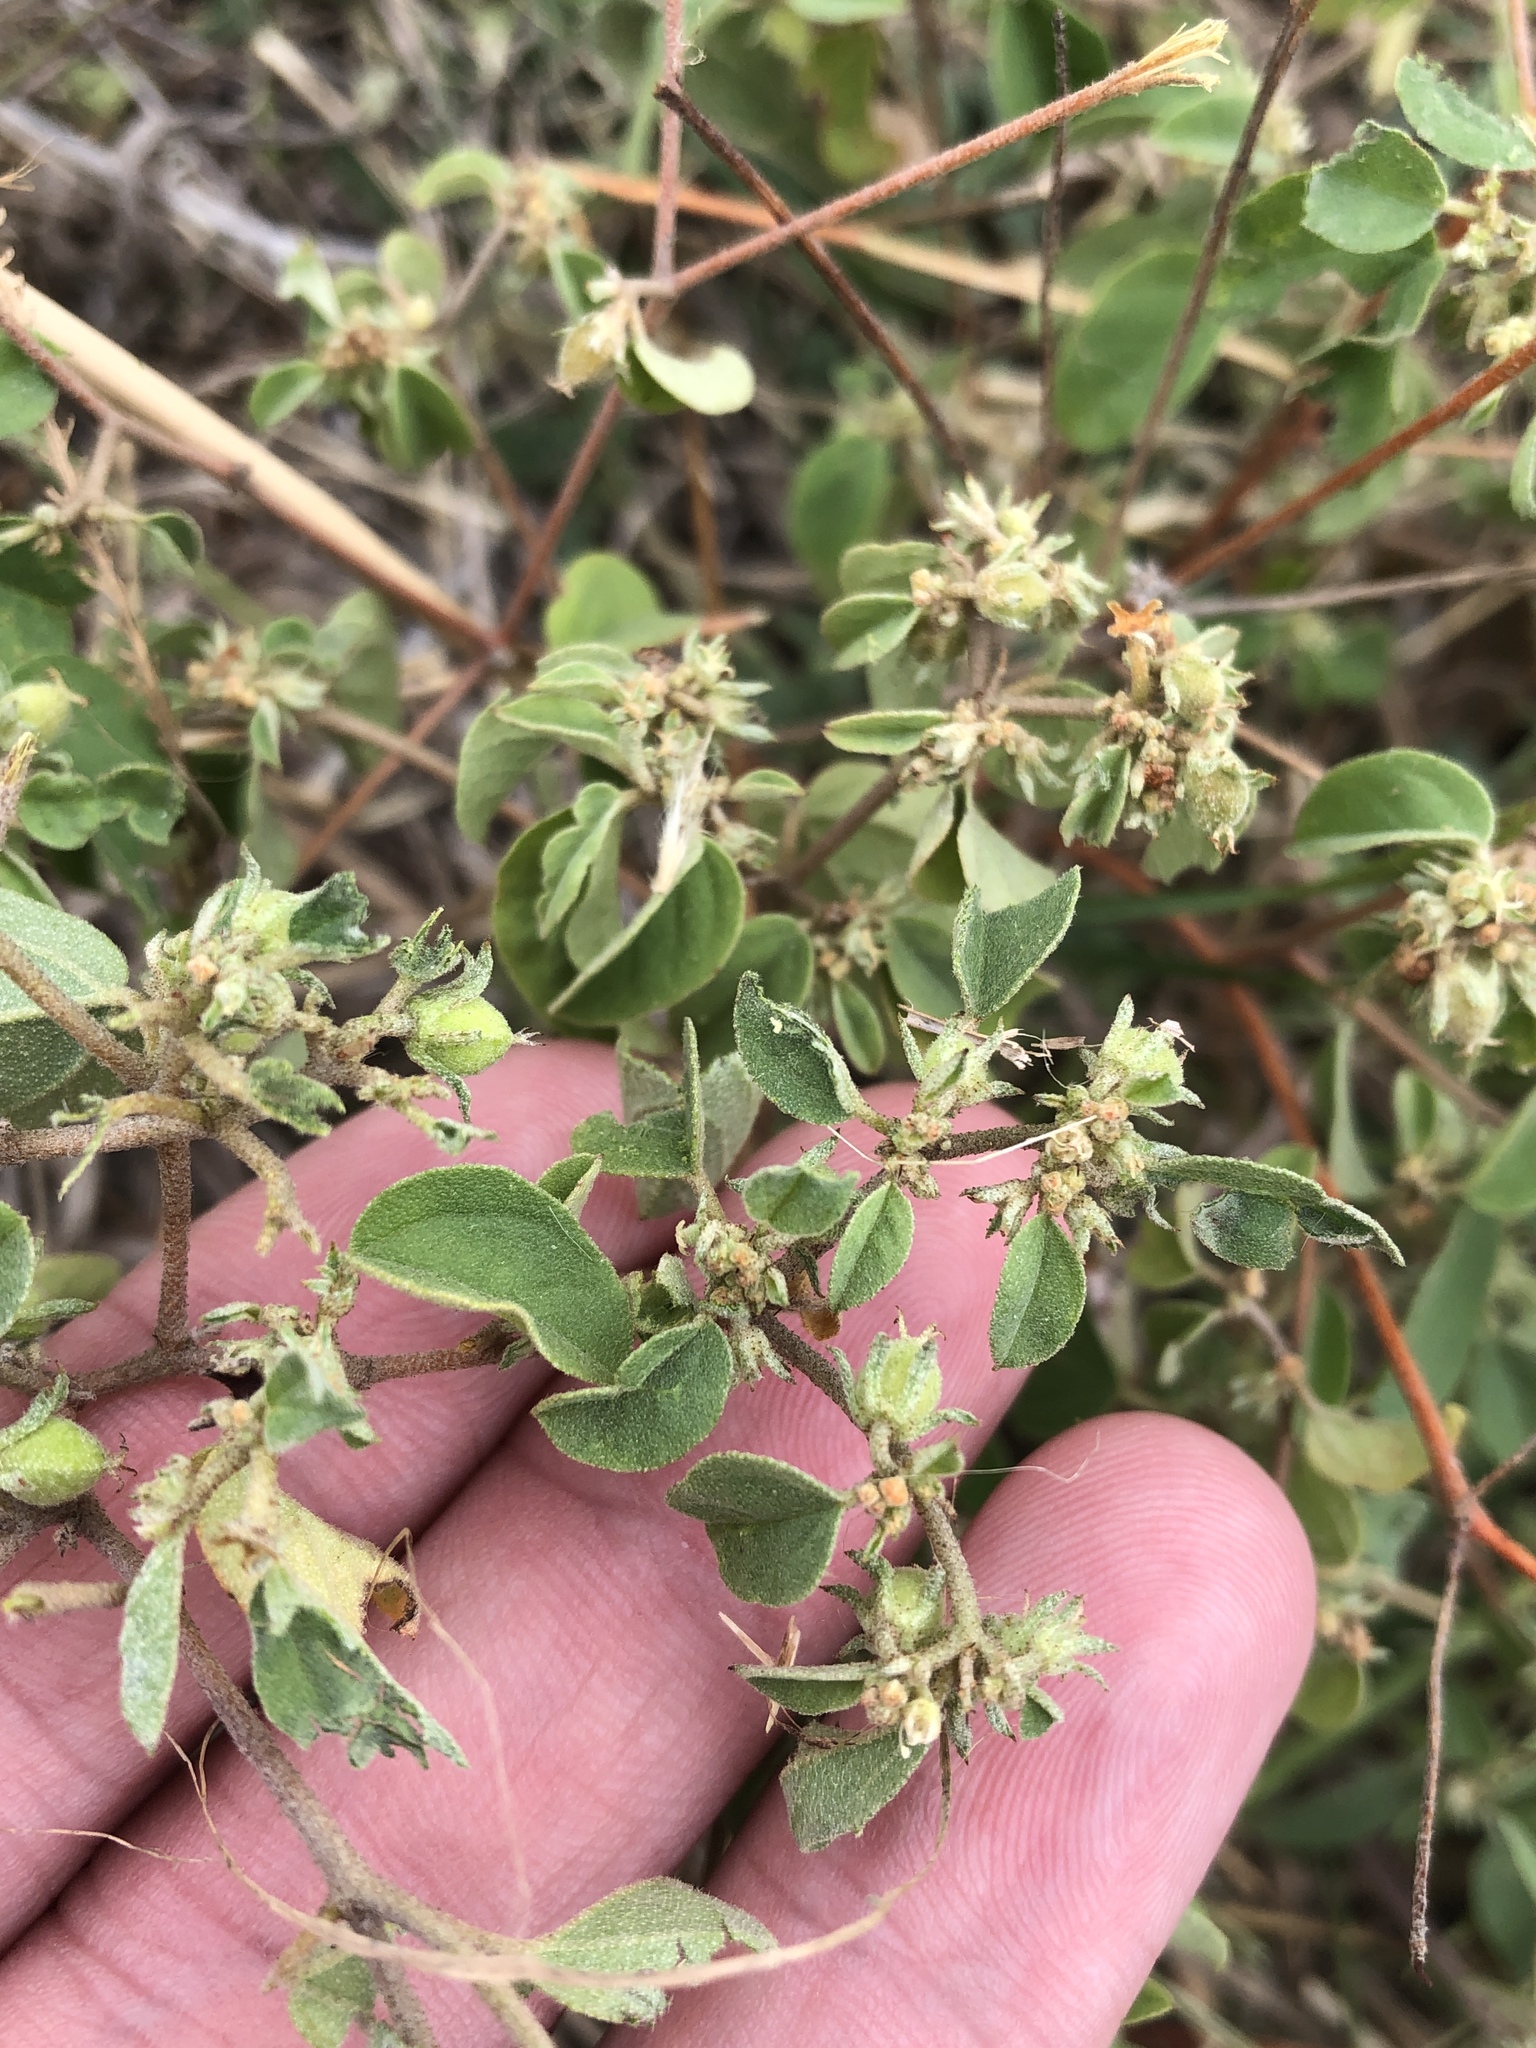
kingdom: Plantae
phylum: Tracheophyta
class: Magnoliopsida
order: Malpighiales
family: Euphorbiaceae
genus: Croton
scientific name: Croton monanthogynus
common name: One-seed croton
